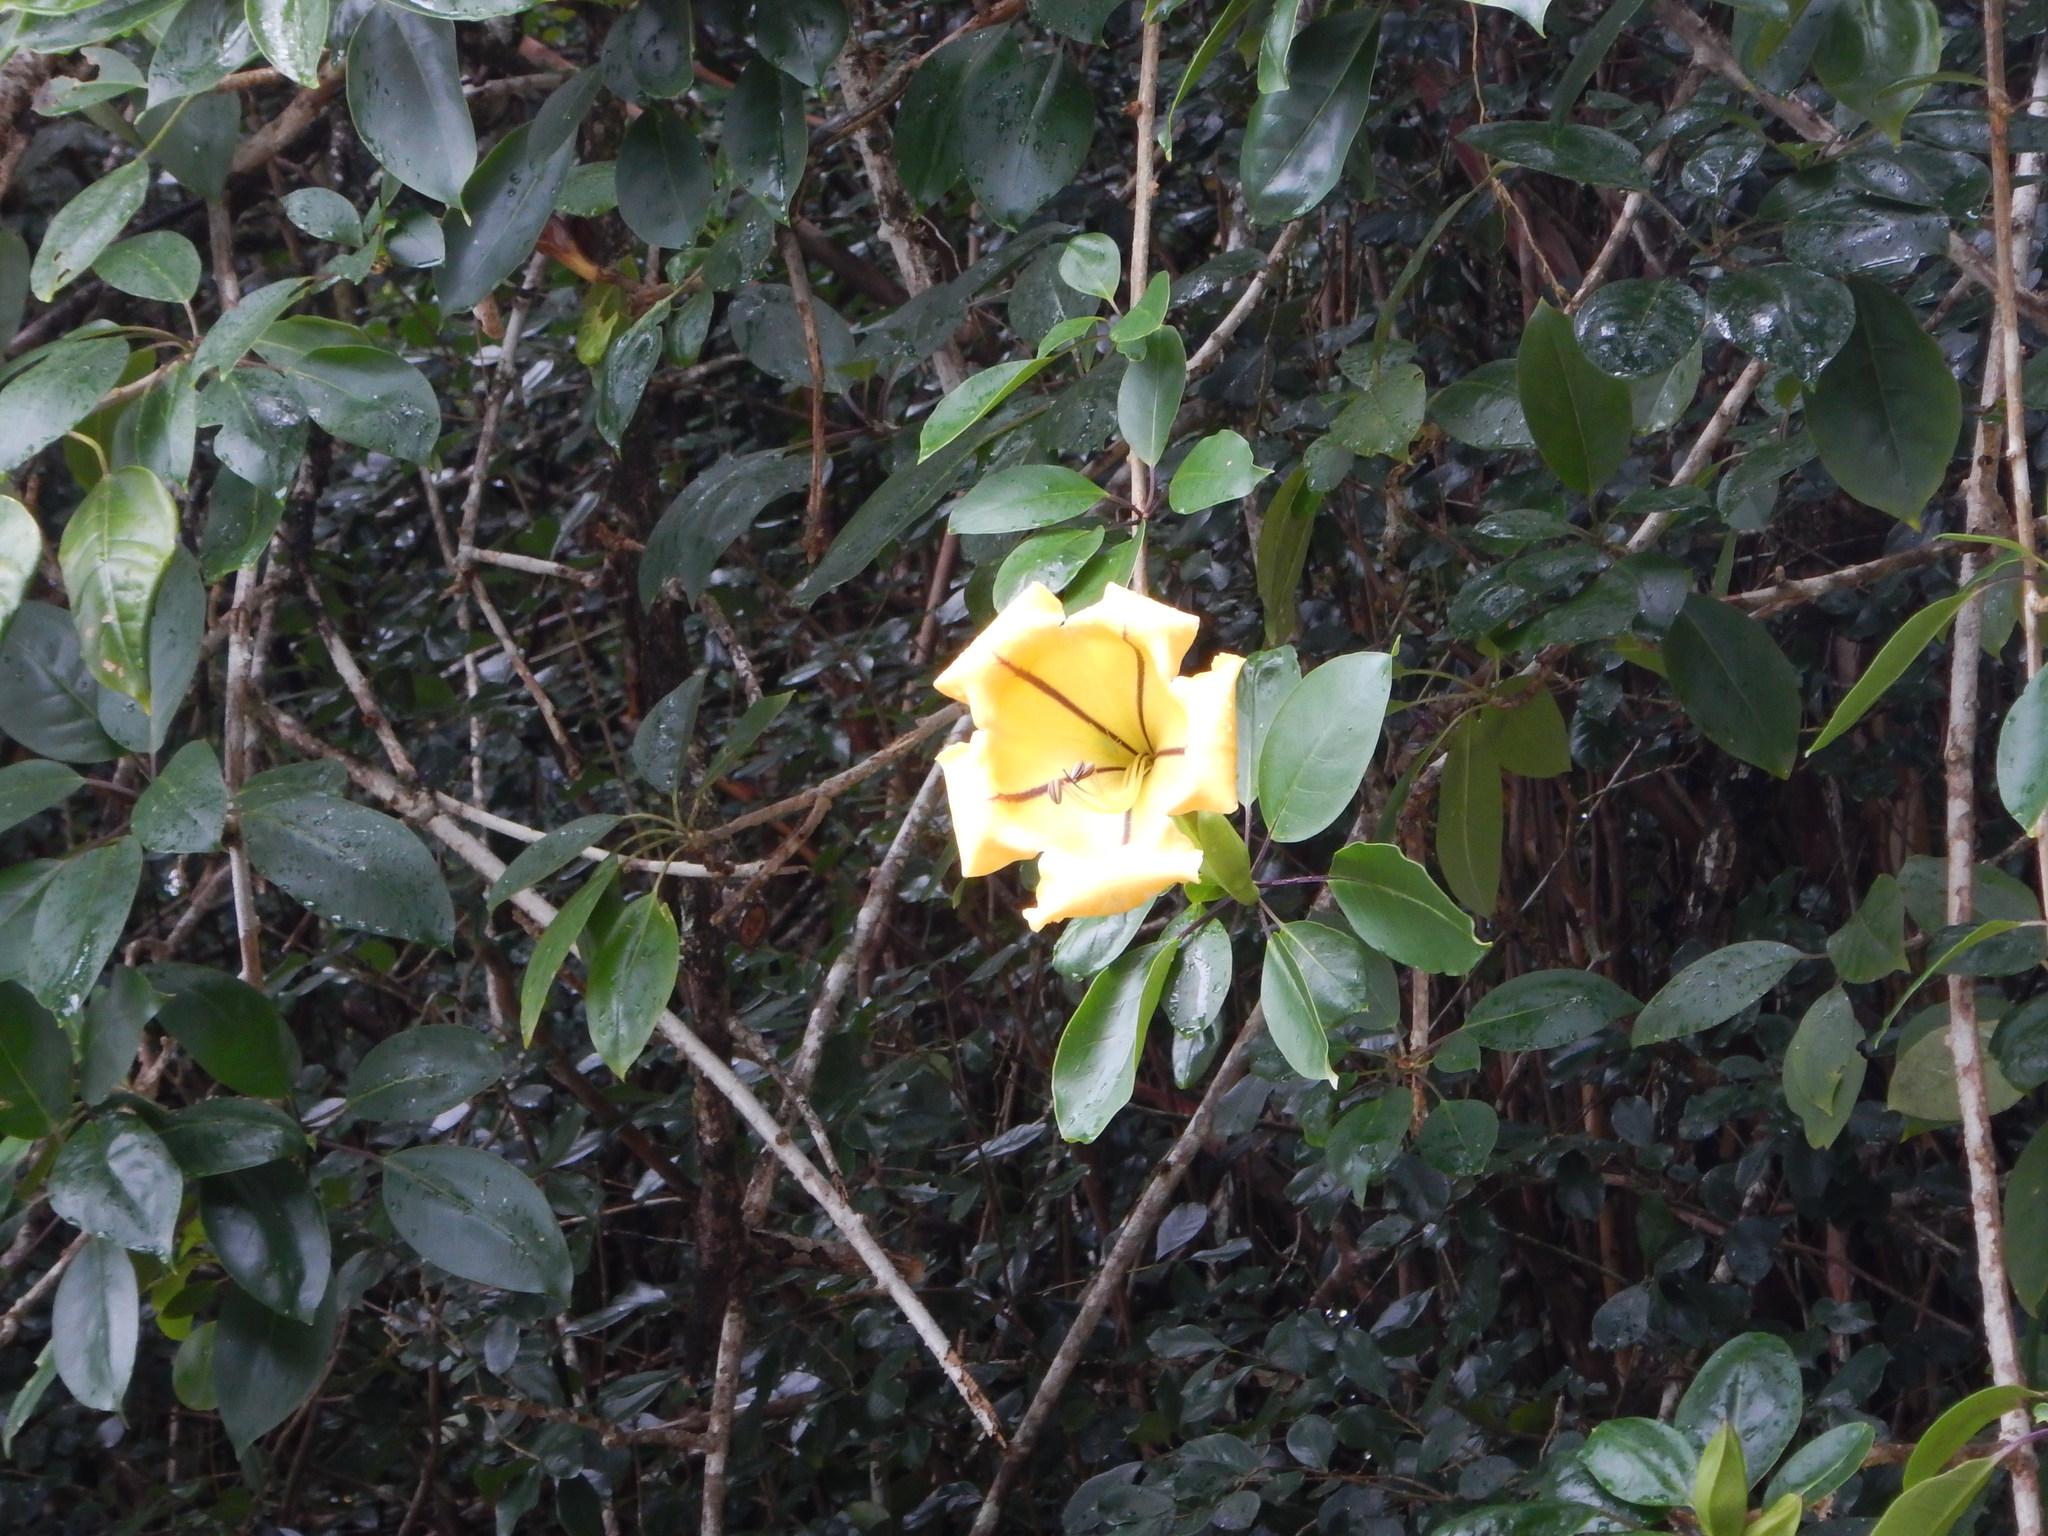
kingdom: Plantae
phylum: Tracheophyta
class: Magnoliopsida
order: Solanales
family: Solanaceae
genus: Solandra
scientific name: Solandra maxima
